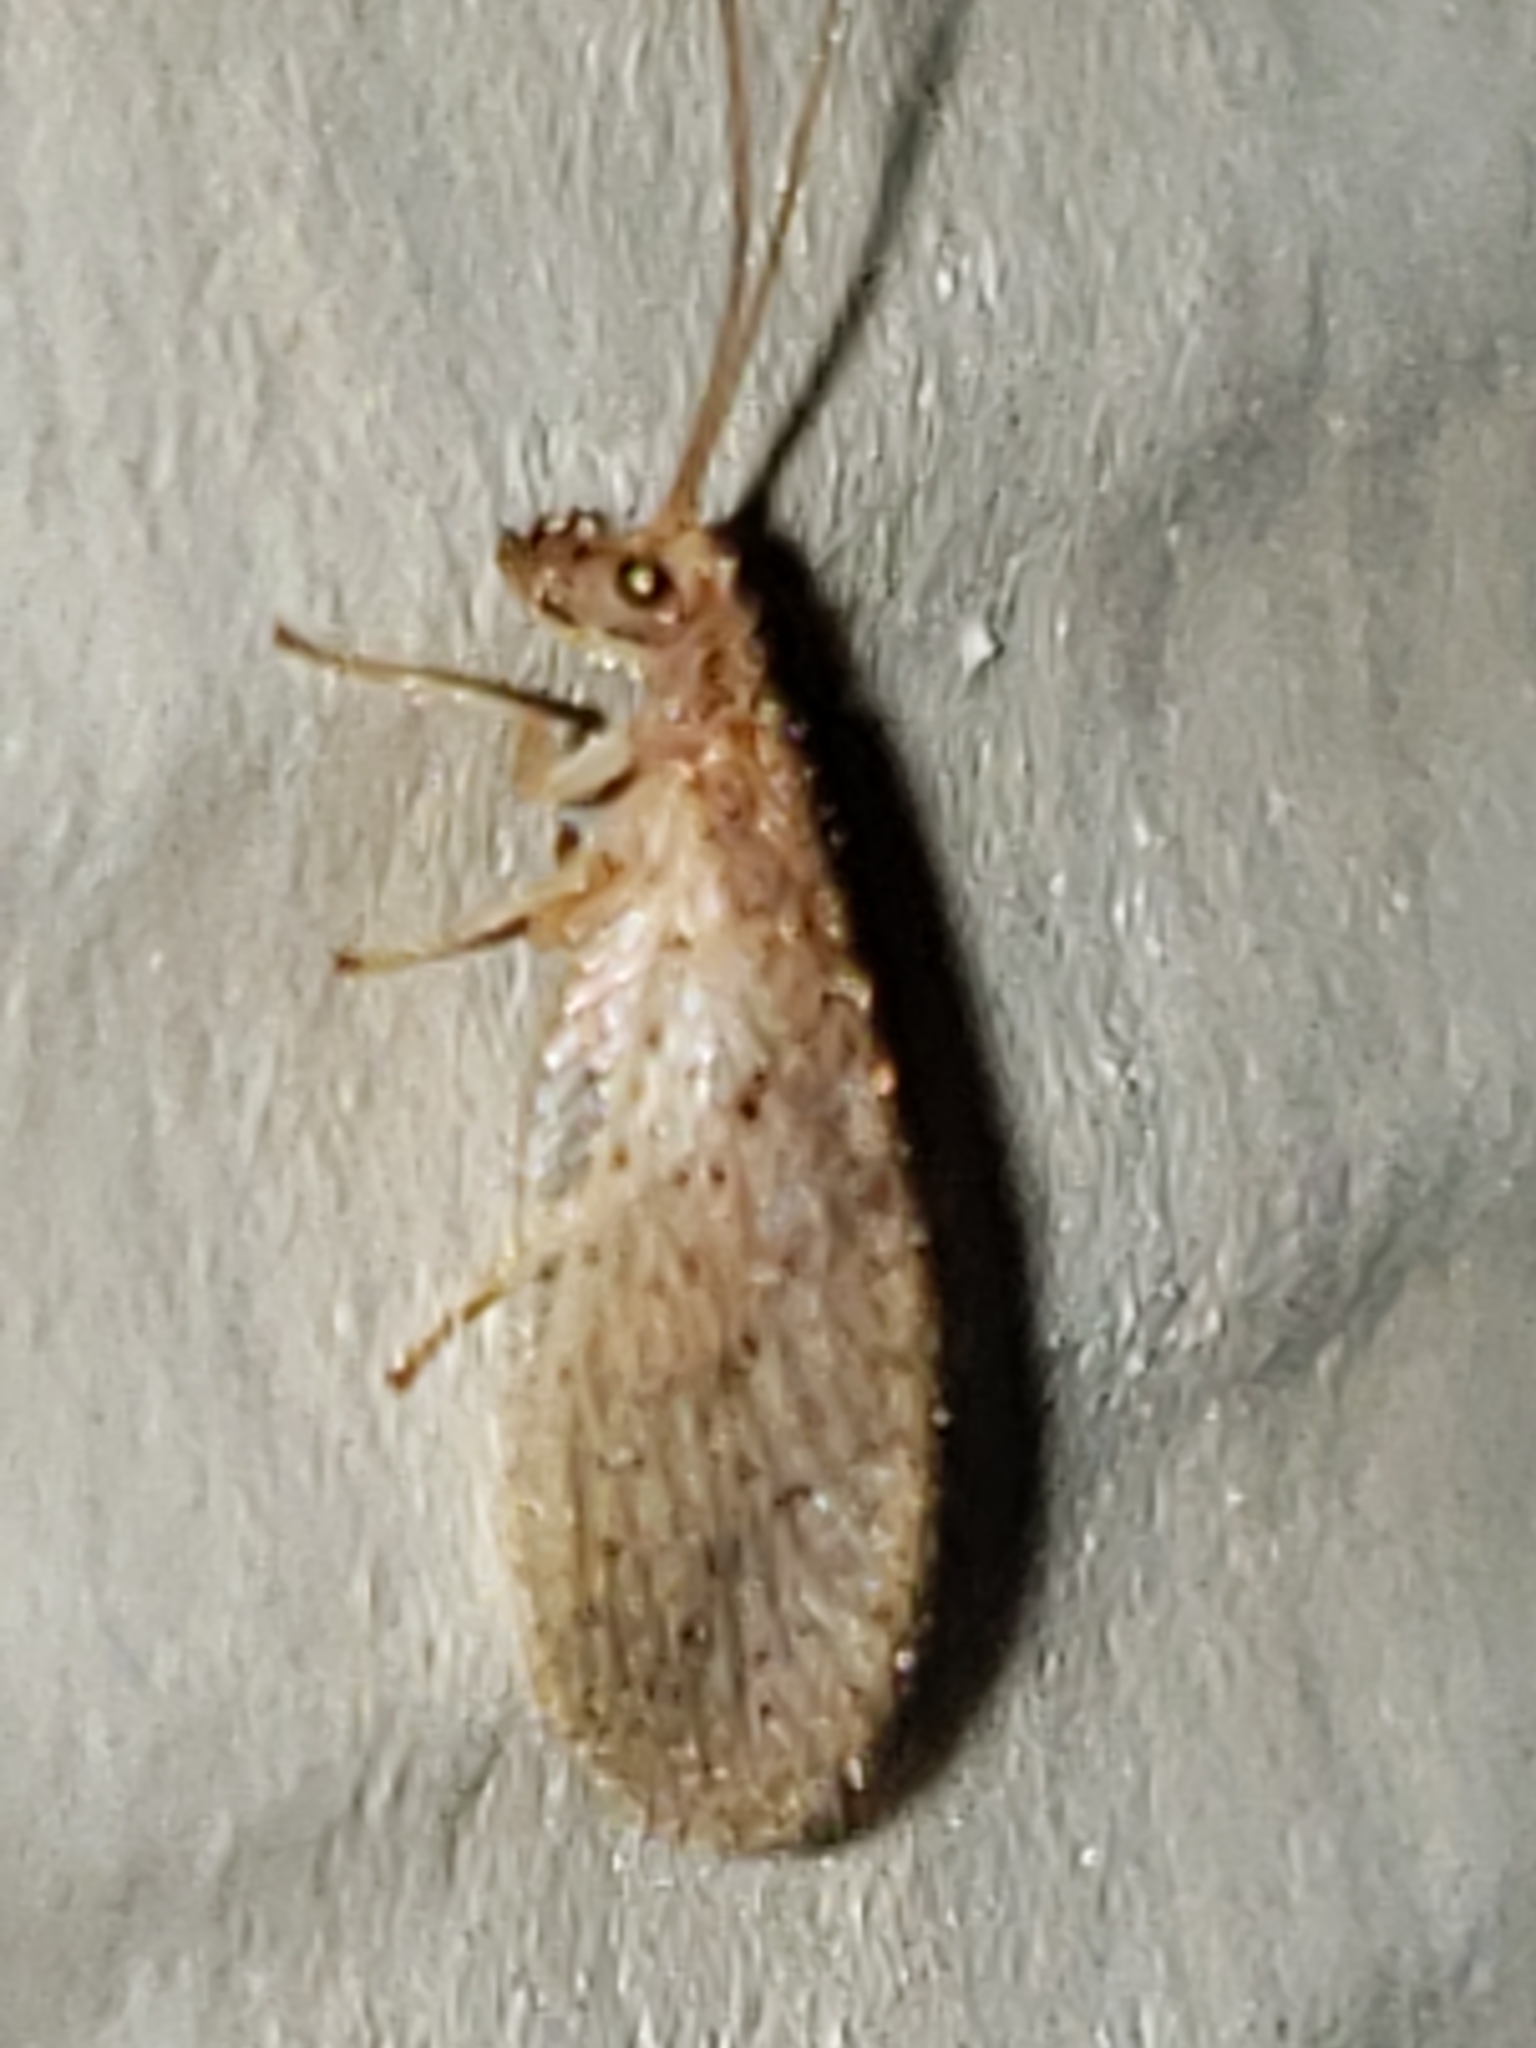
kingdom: Animalia
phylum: Arthropoda
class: Insecta
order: Neuroptera
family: Hemerobiidae
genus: Micromus
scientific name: Micromus subanticus
